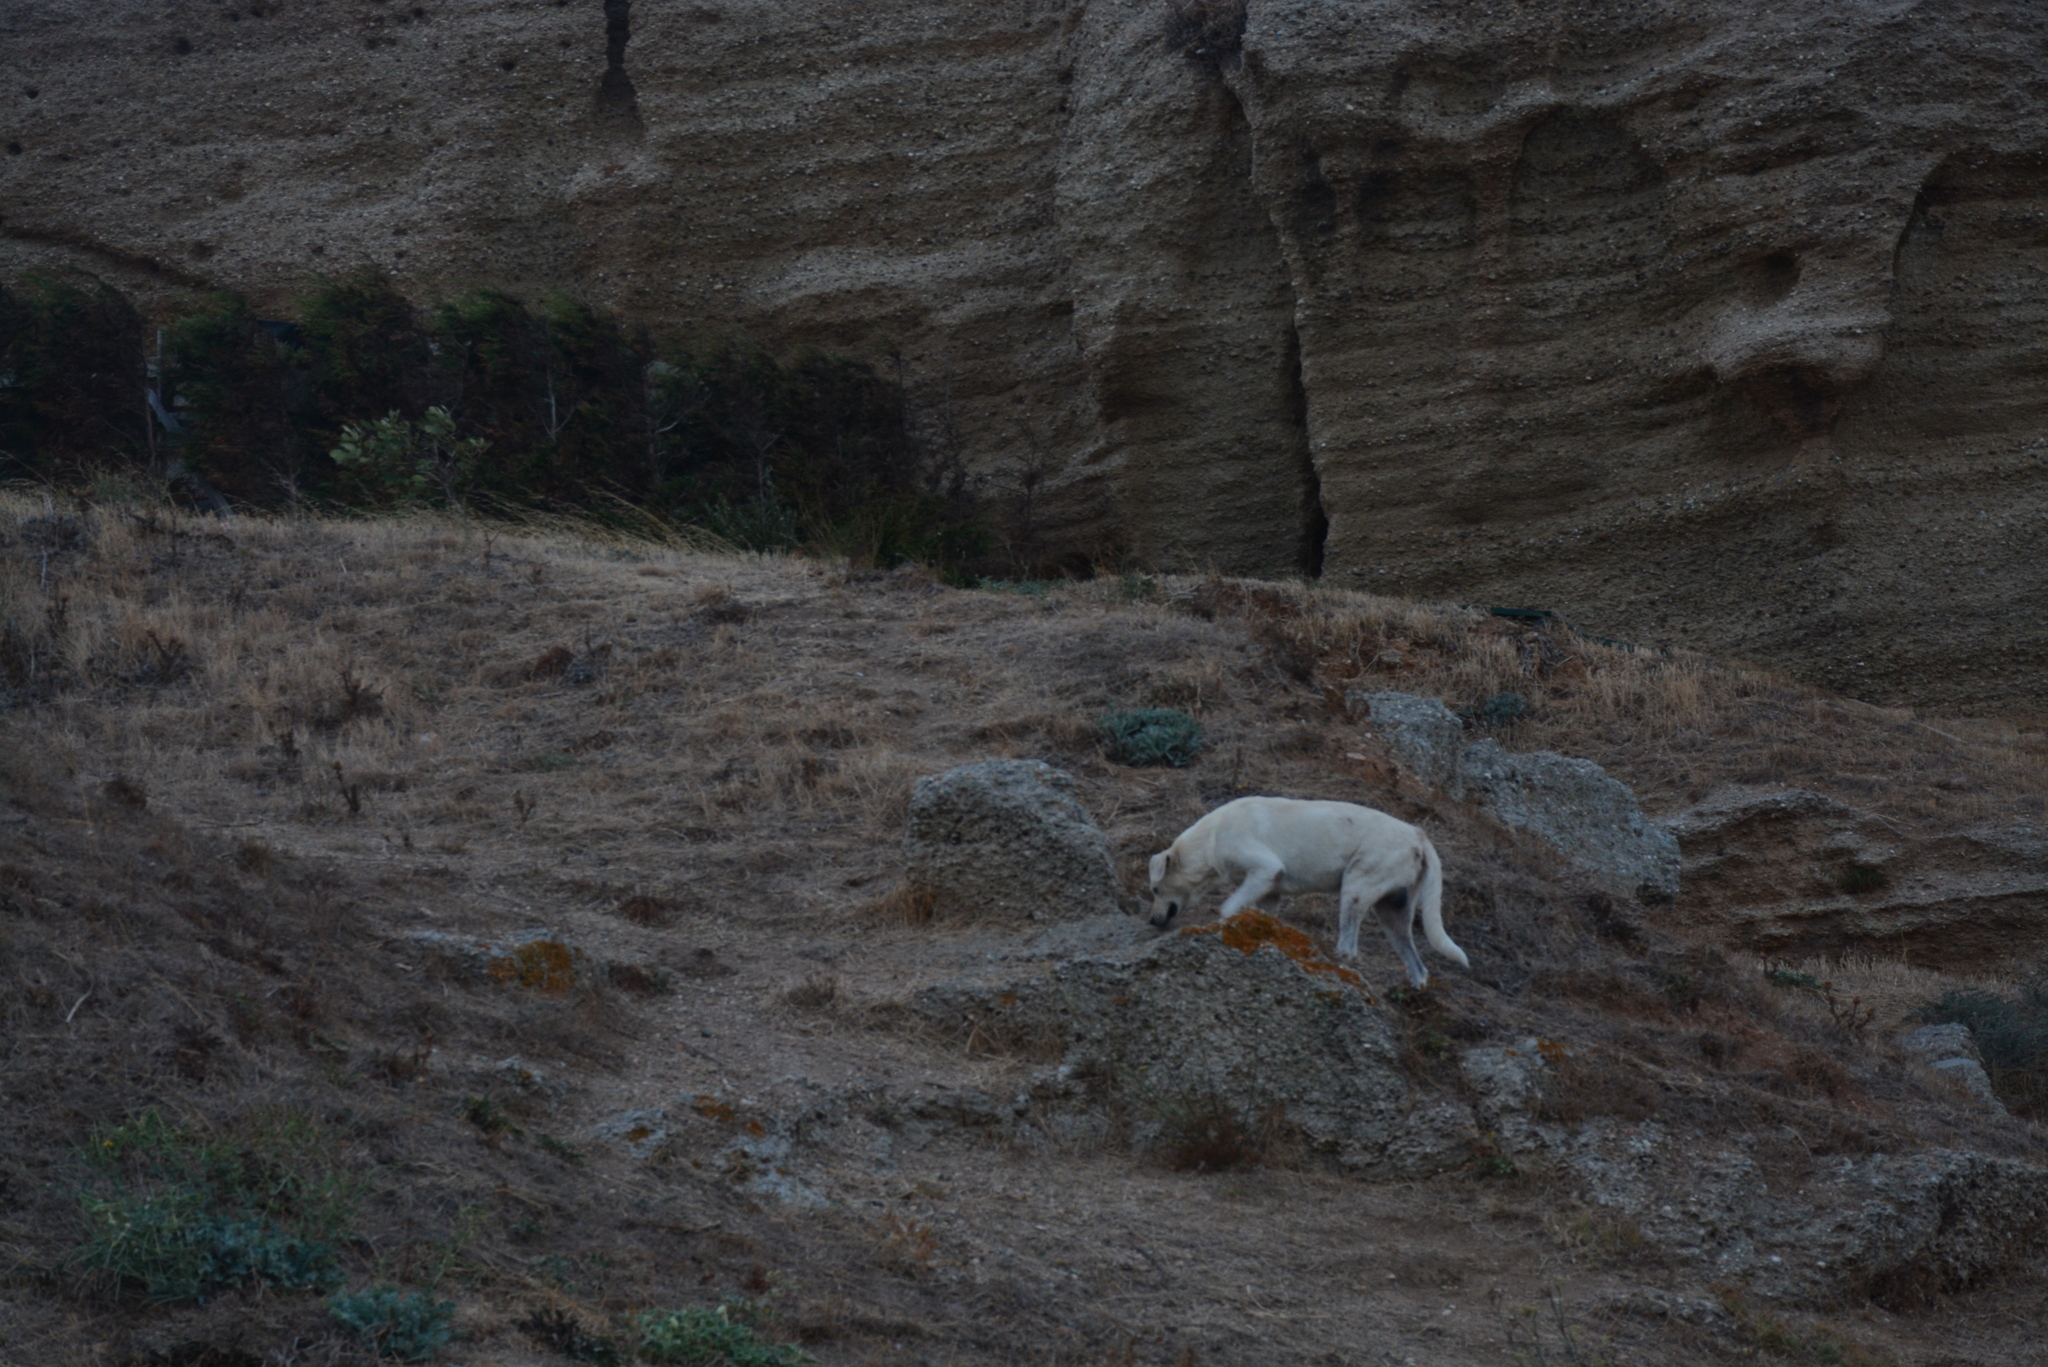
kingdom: Animalia
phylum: Chordata
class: Mammalia
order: Carnivora
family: Canidae
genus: Canis
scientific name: Canis lupus
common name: Gray wolf
